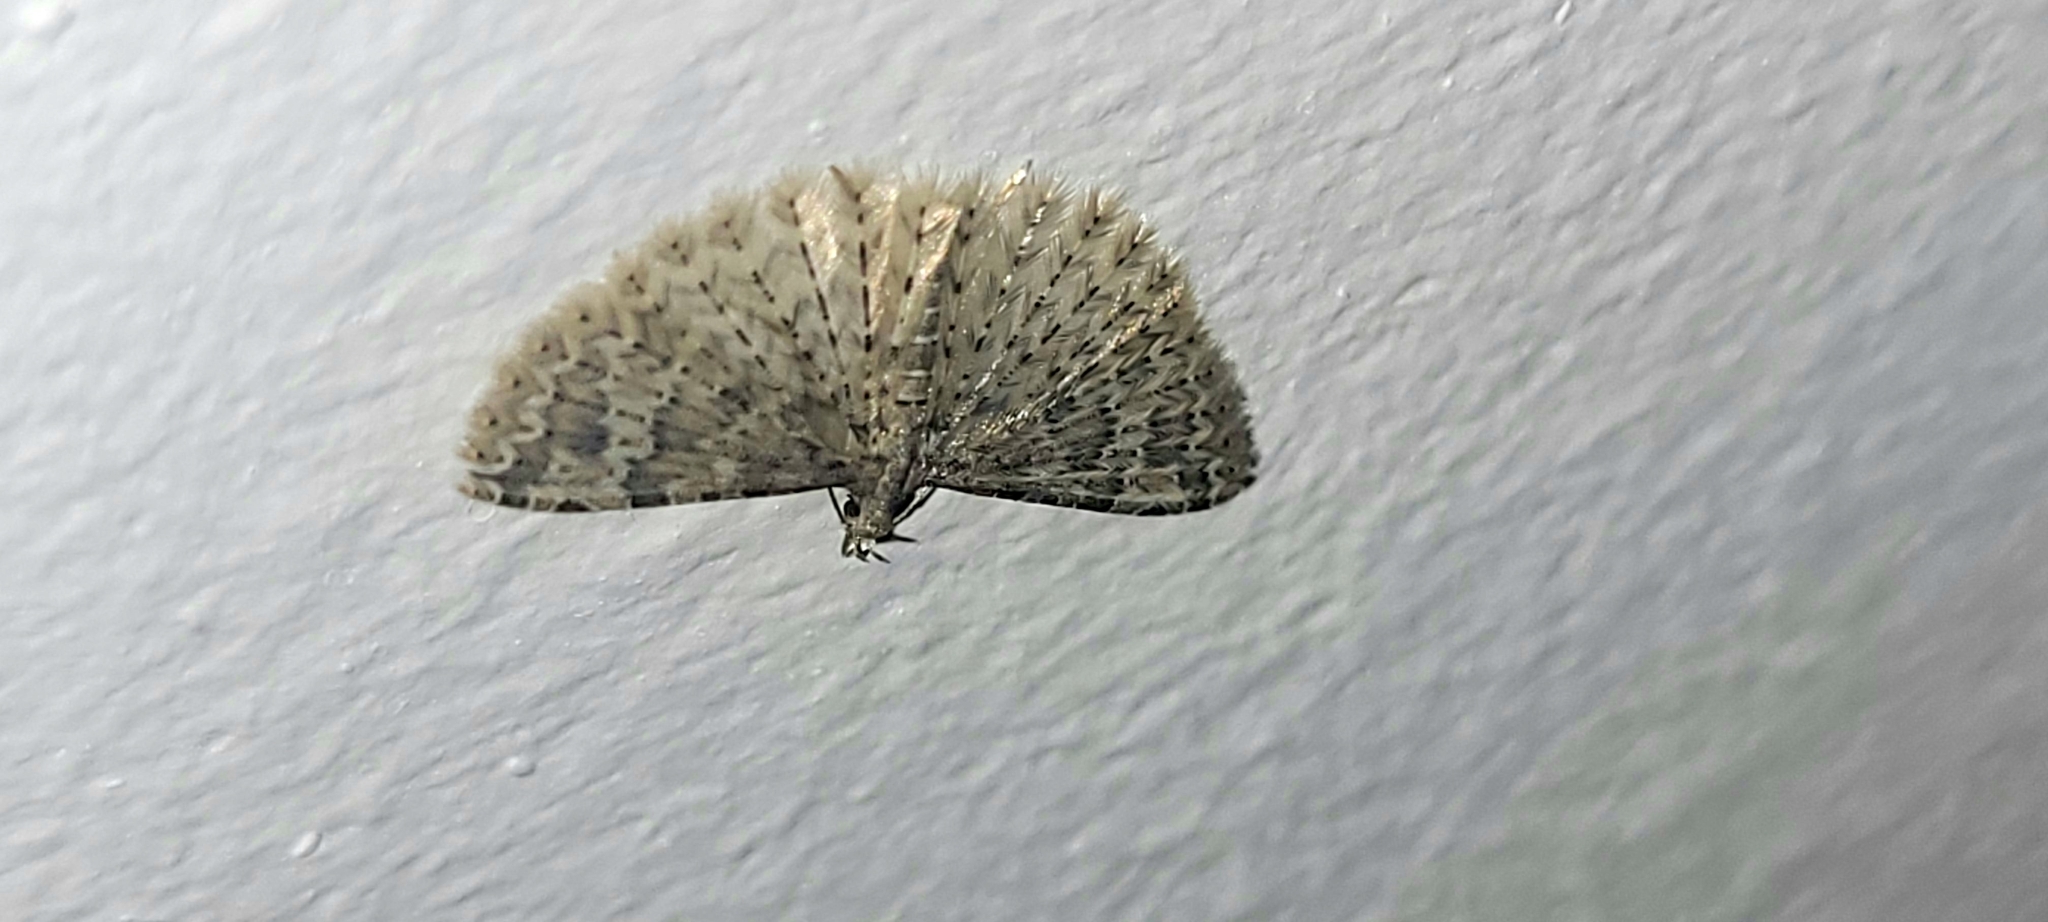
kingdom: Animalia
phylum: Arthropoda
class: Insecta
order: Lepidoptera
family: Alucitidae
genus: Alucita
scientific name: Alucita hexadactyla
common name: Twenty-plume moth
